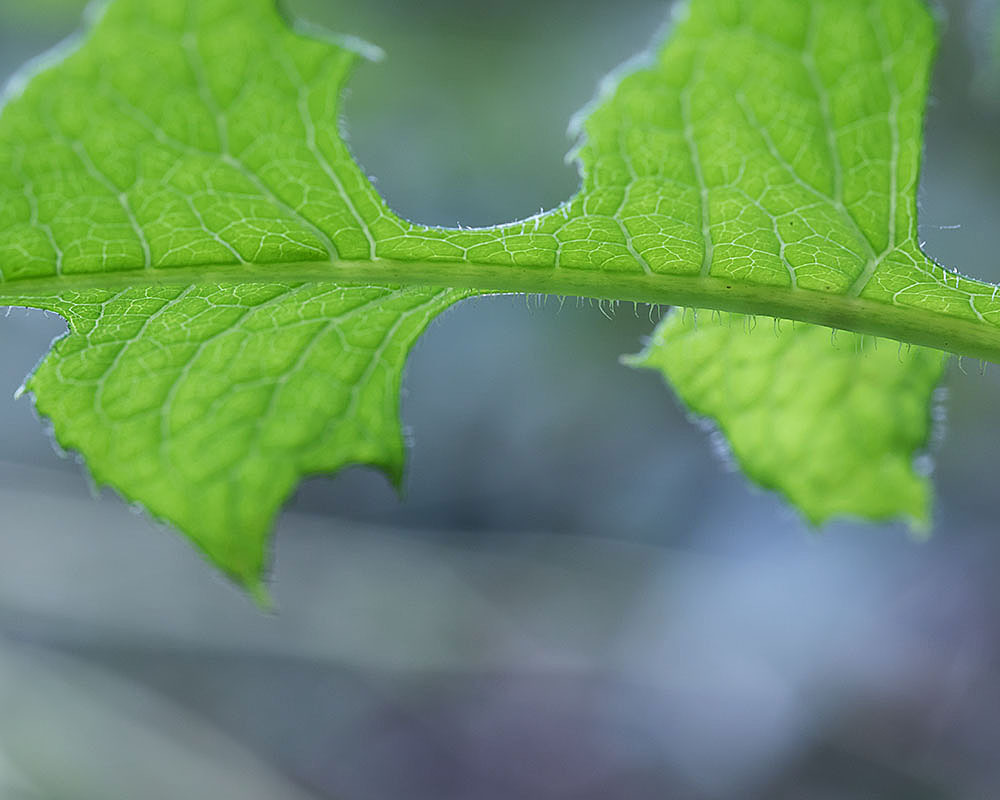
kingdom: Plantae
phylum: Tracheophyta
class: Magnoliopsida
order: Asterales
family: Asteraceae
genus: Lactuca
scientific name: Lactuca hirsuta
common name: Hairy lettuce
